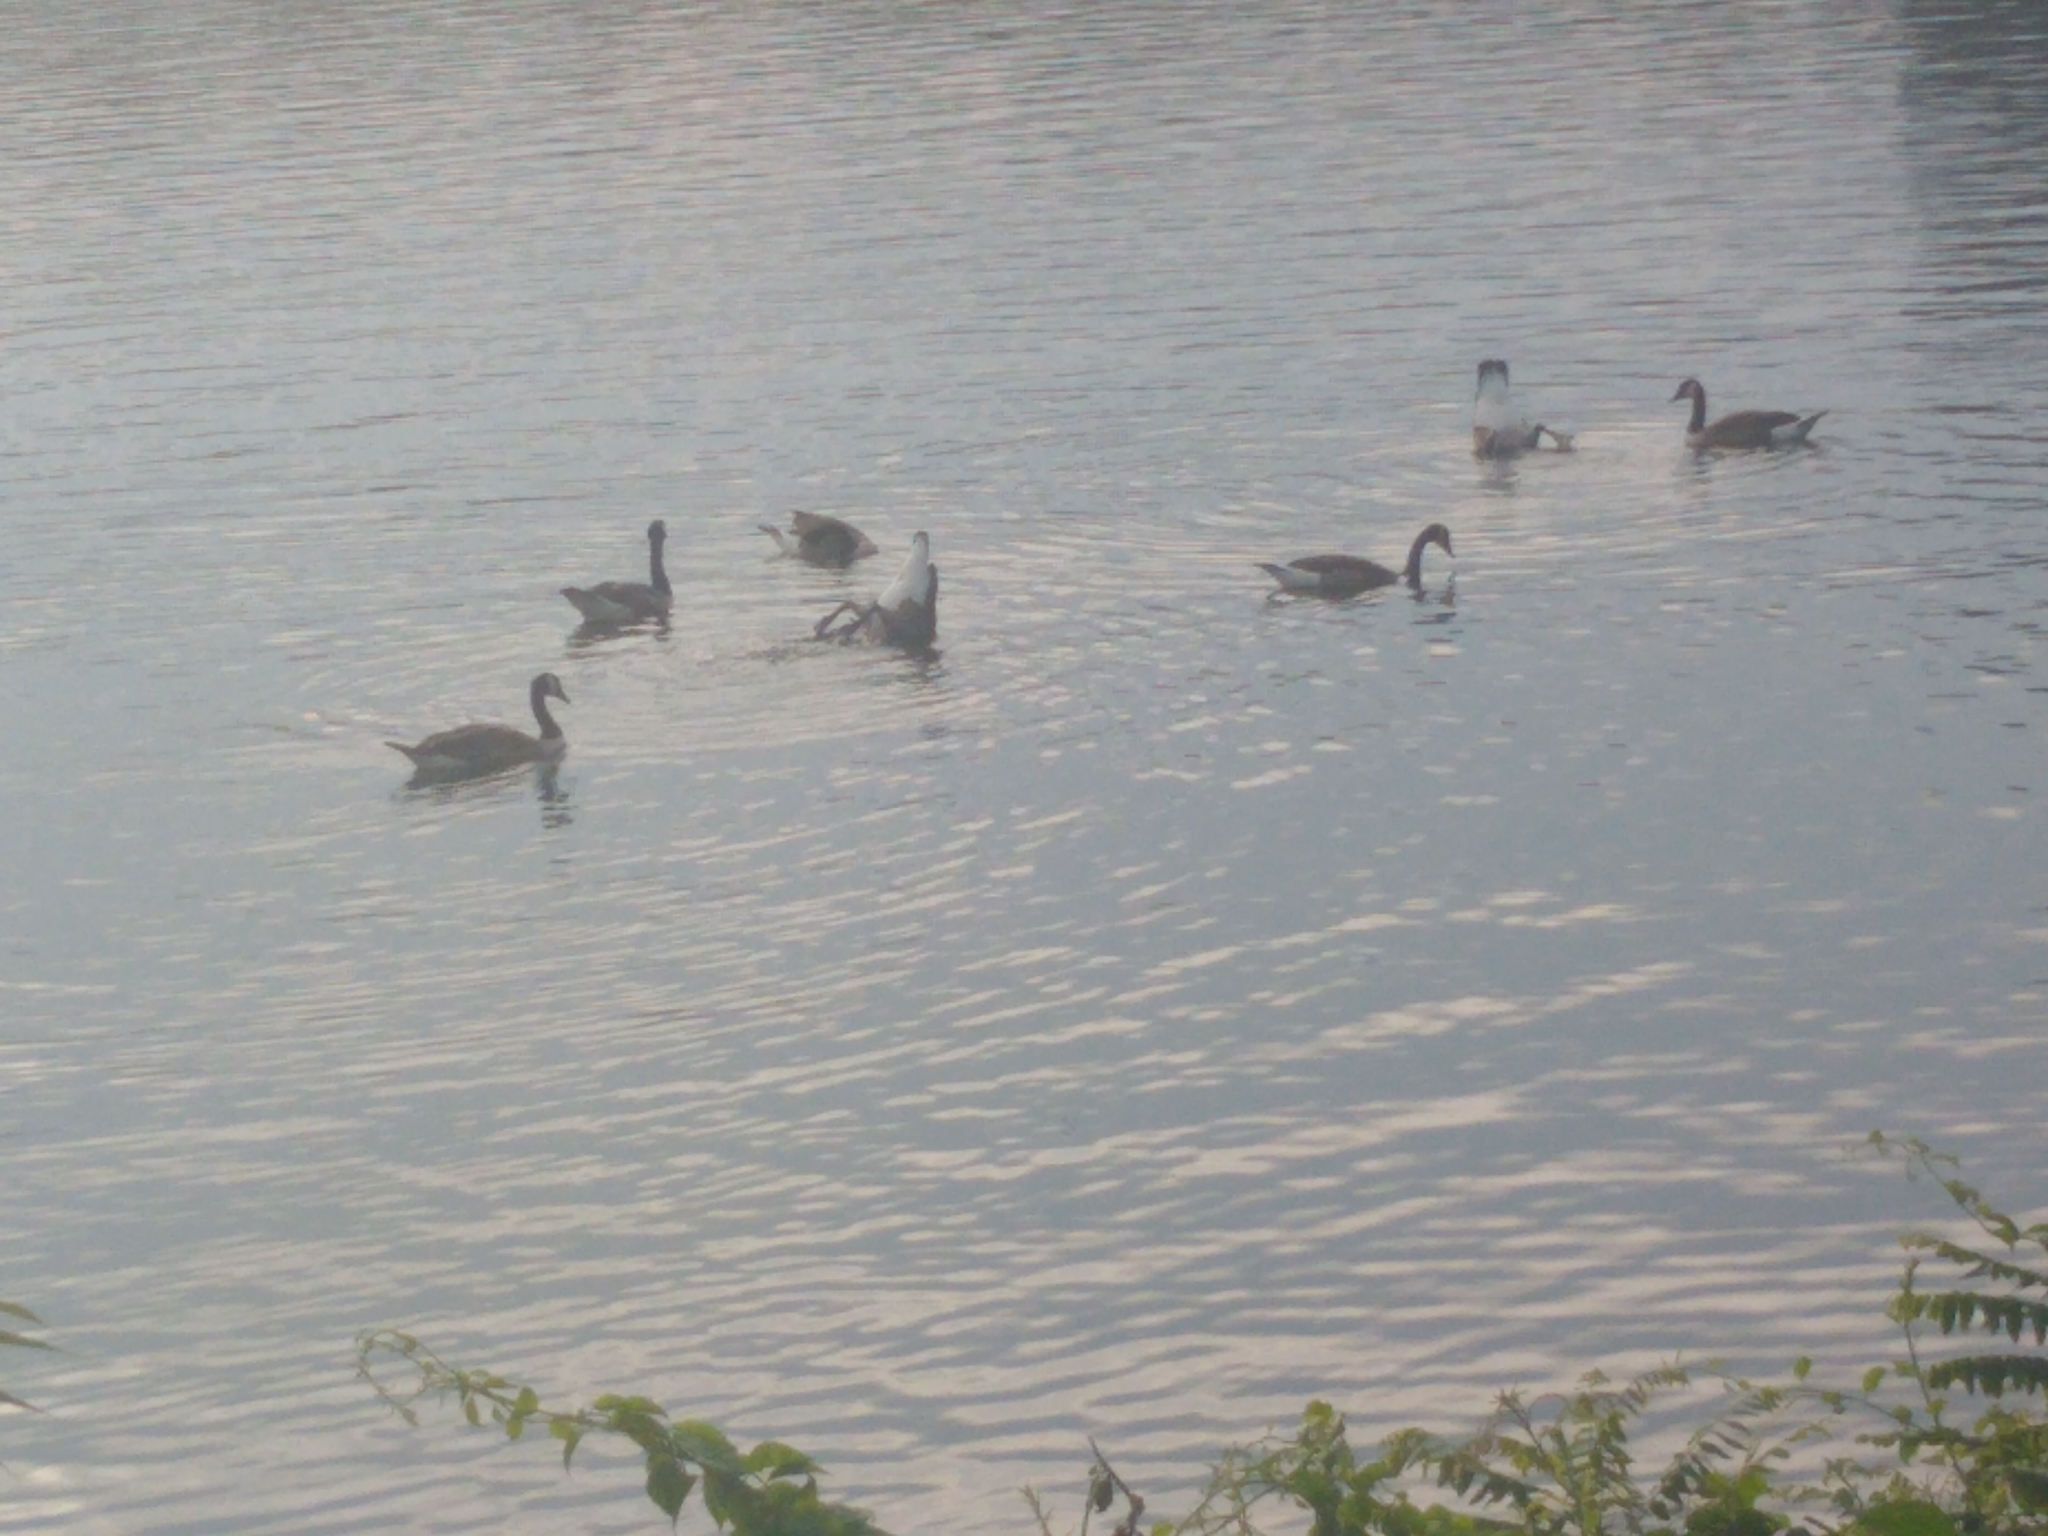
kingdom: Animalia
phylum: Chordata
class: Aves
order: Anseriformes
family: Anatidae
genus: Branta
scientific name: Branta canadensis
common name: Canada goose
